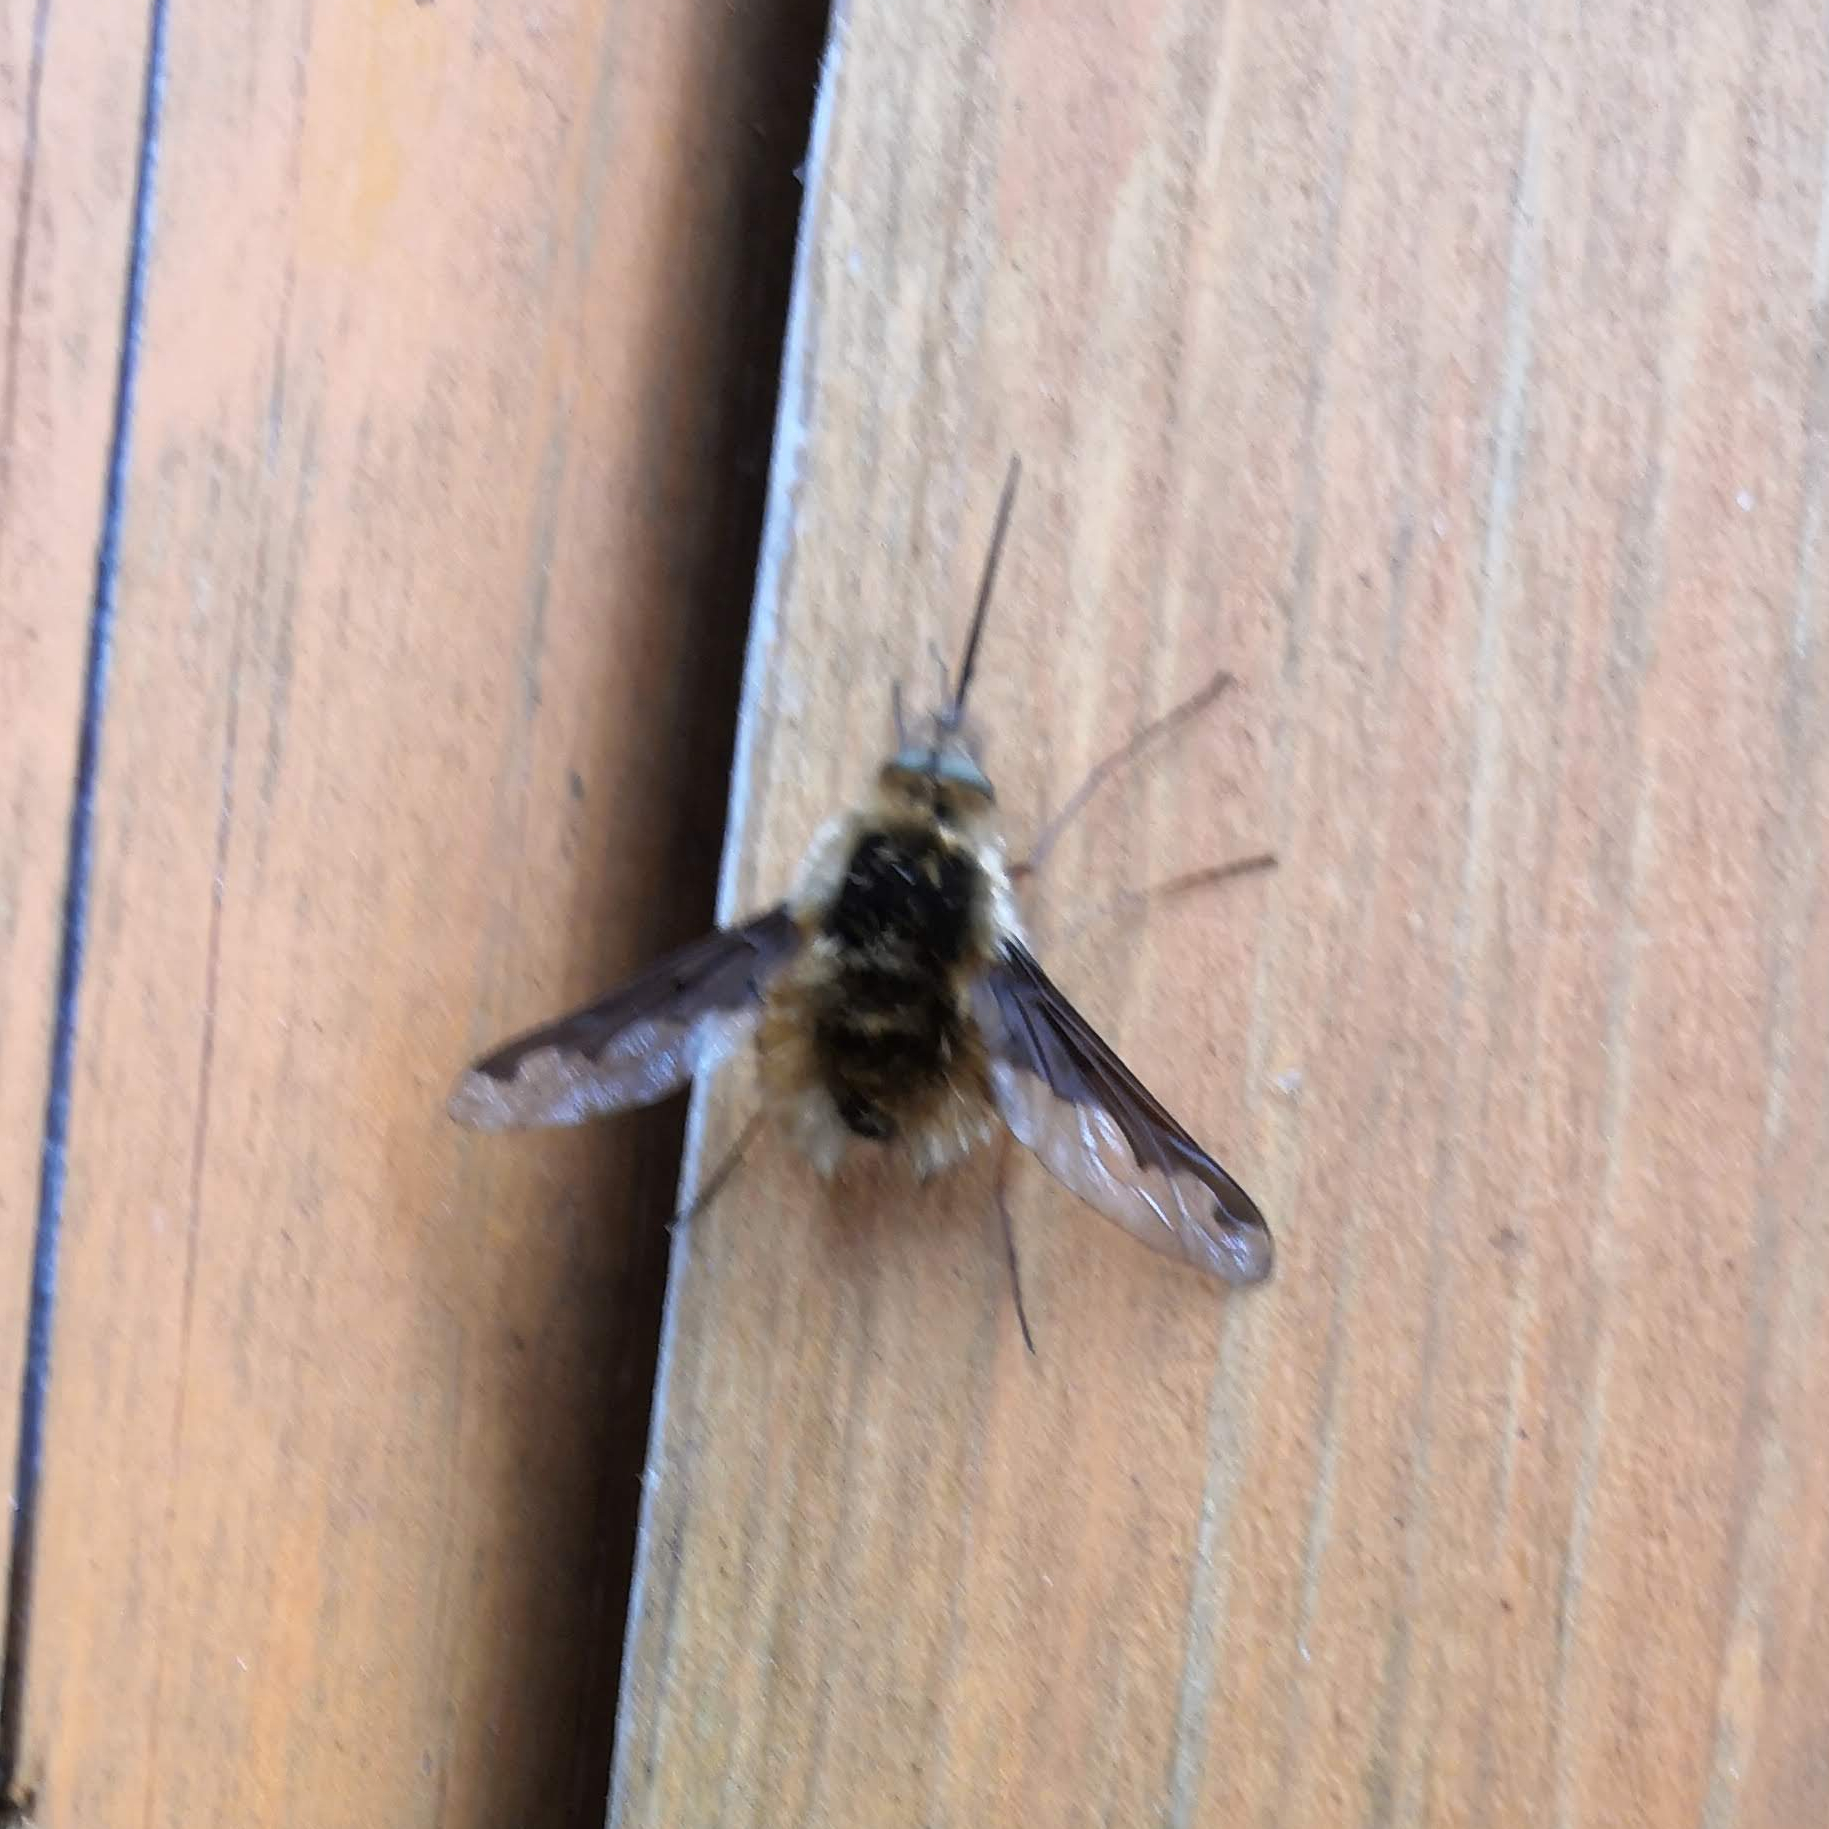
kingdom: Animalia
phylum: Arthropoda
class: Insecta
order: Diptera
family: Bombyliidae
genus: Bombylius
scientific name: Bombylius major
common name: Bee fly
